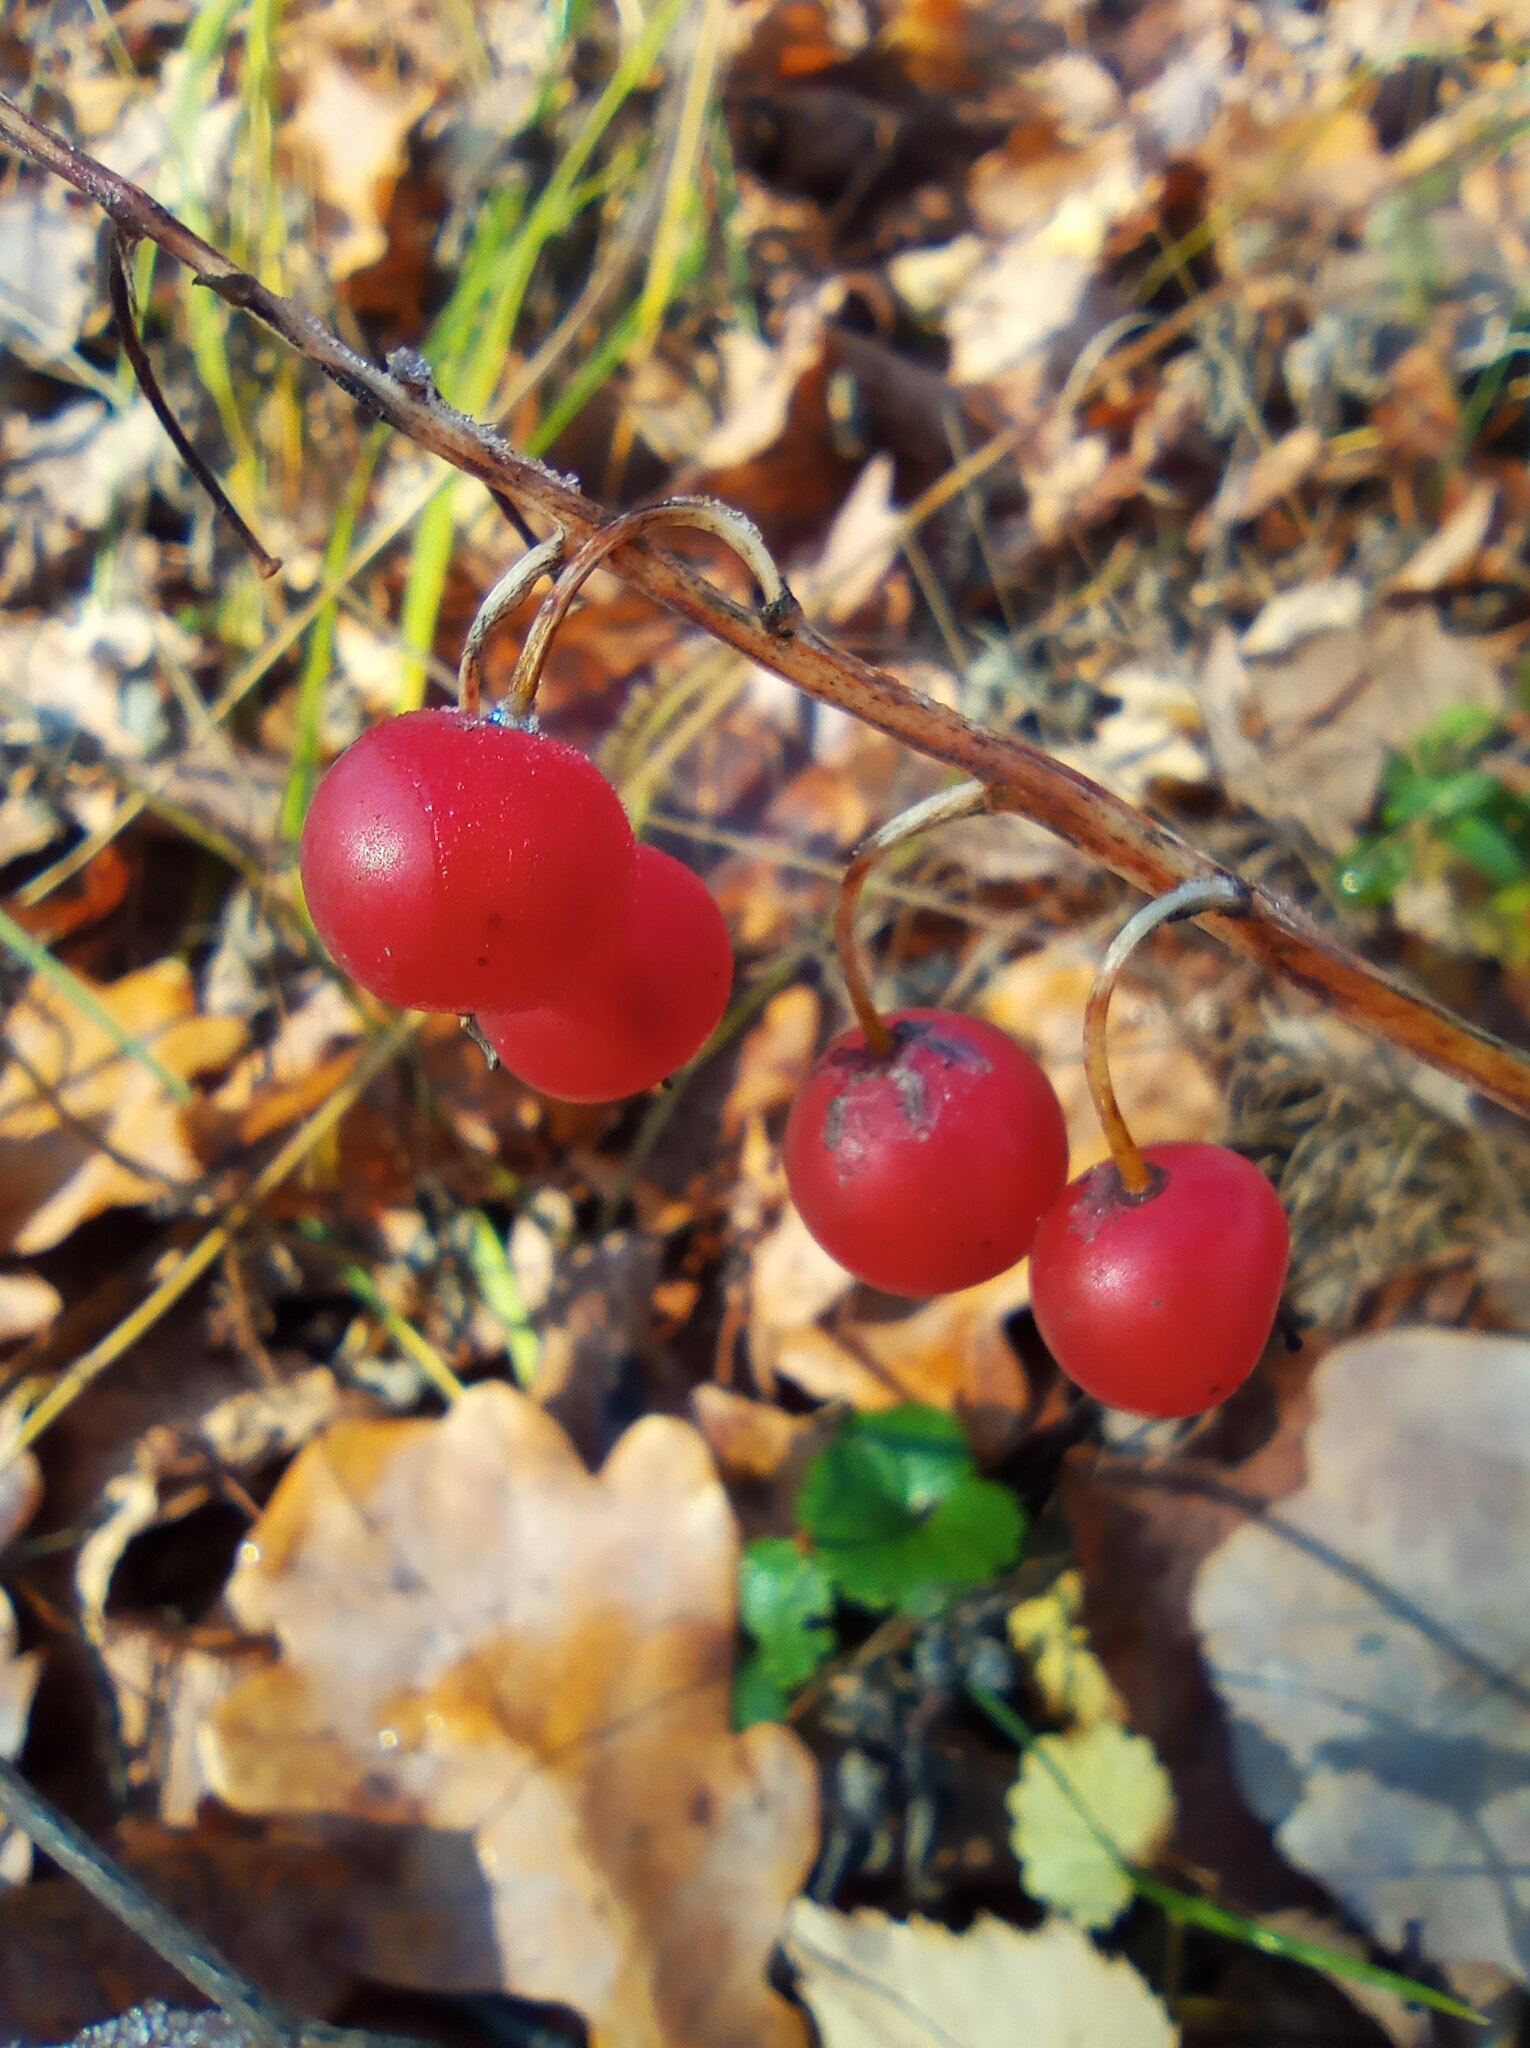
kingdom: Plantae
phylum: Tracheophyta
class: Liliopsida
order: Asparagales
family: Asparagaceae
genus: Convallaria
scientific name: Convallaria majalis
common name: Lily-of-the-valley
